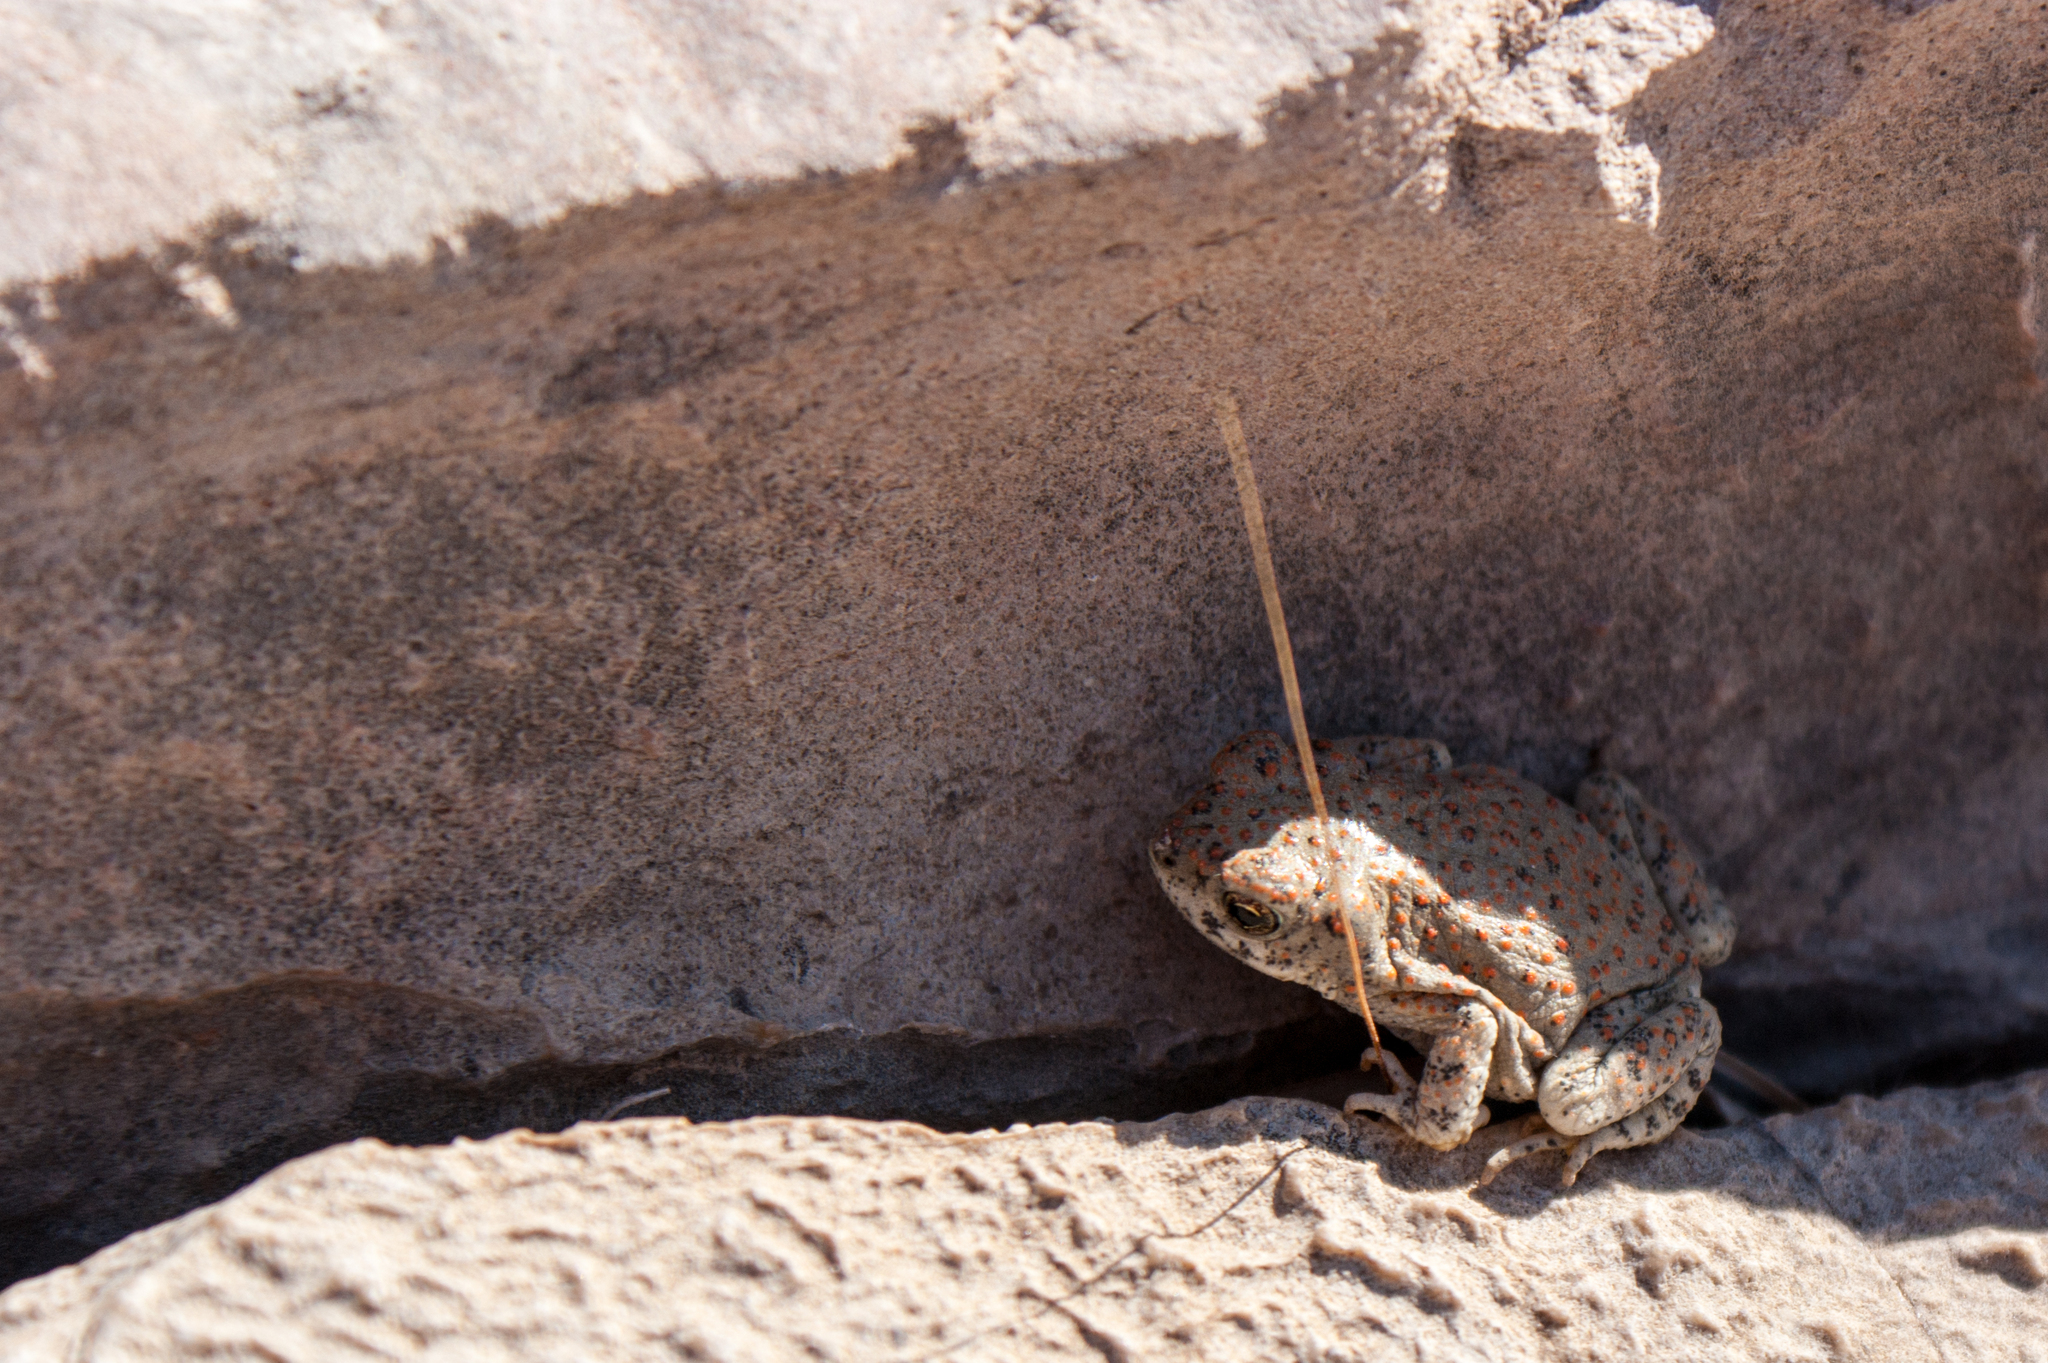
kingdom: Animalia
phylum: Chordata
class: Amphibia
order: Anura
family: Bufonidae
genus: Anaxyrus
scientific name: Anaxyrus punctatus
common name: Red-spotted toad
